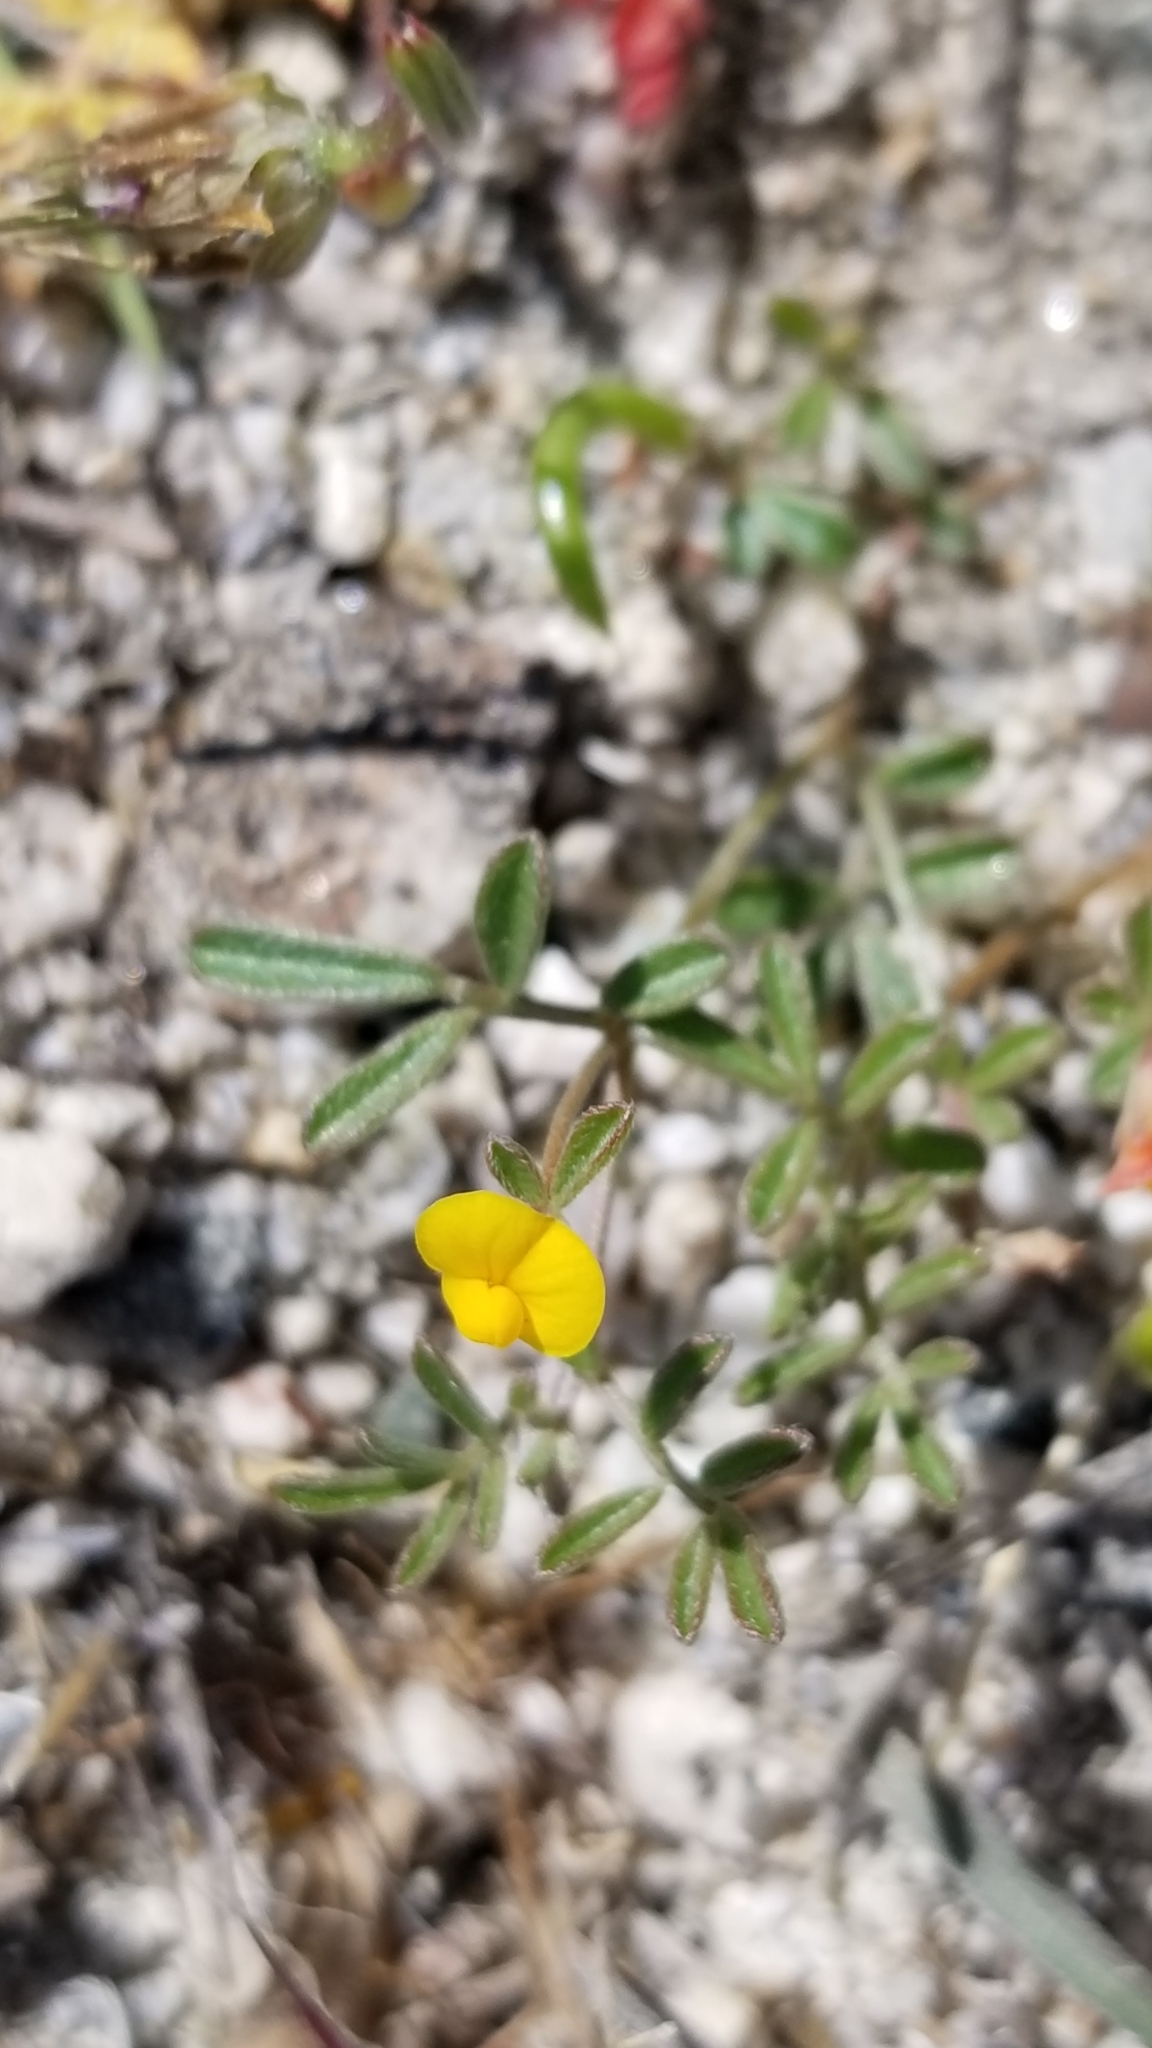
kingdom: Plantae
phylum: Tracheophyta
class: Magnoliopsida
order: Fabales
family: Fabaceae
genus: Acmispon
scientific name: Acmispon strigosus
